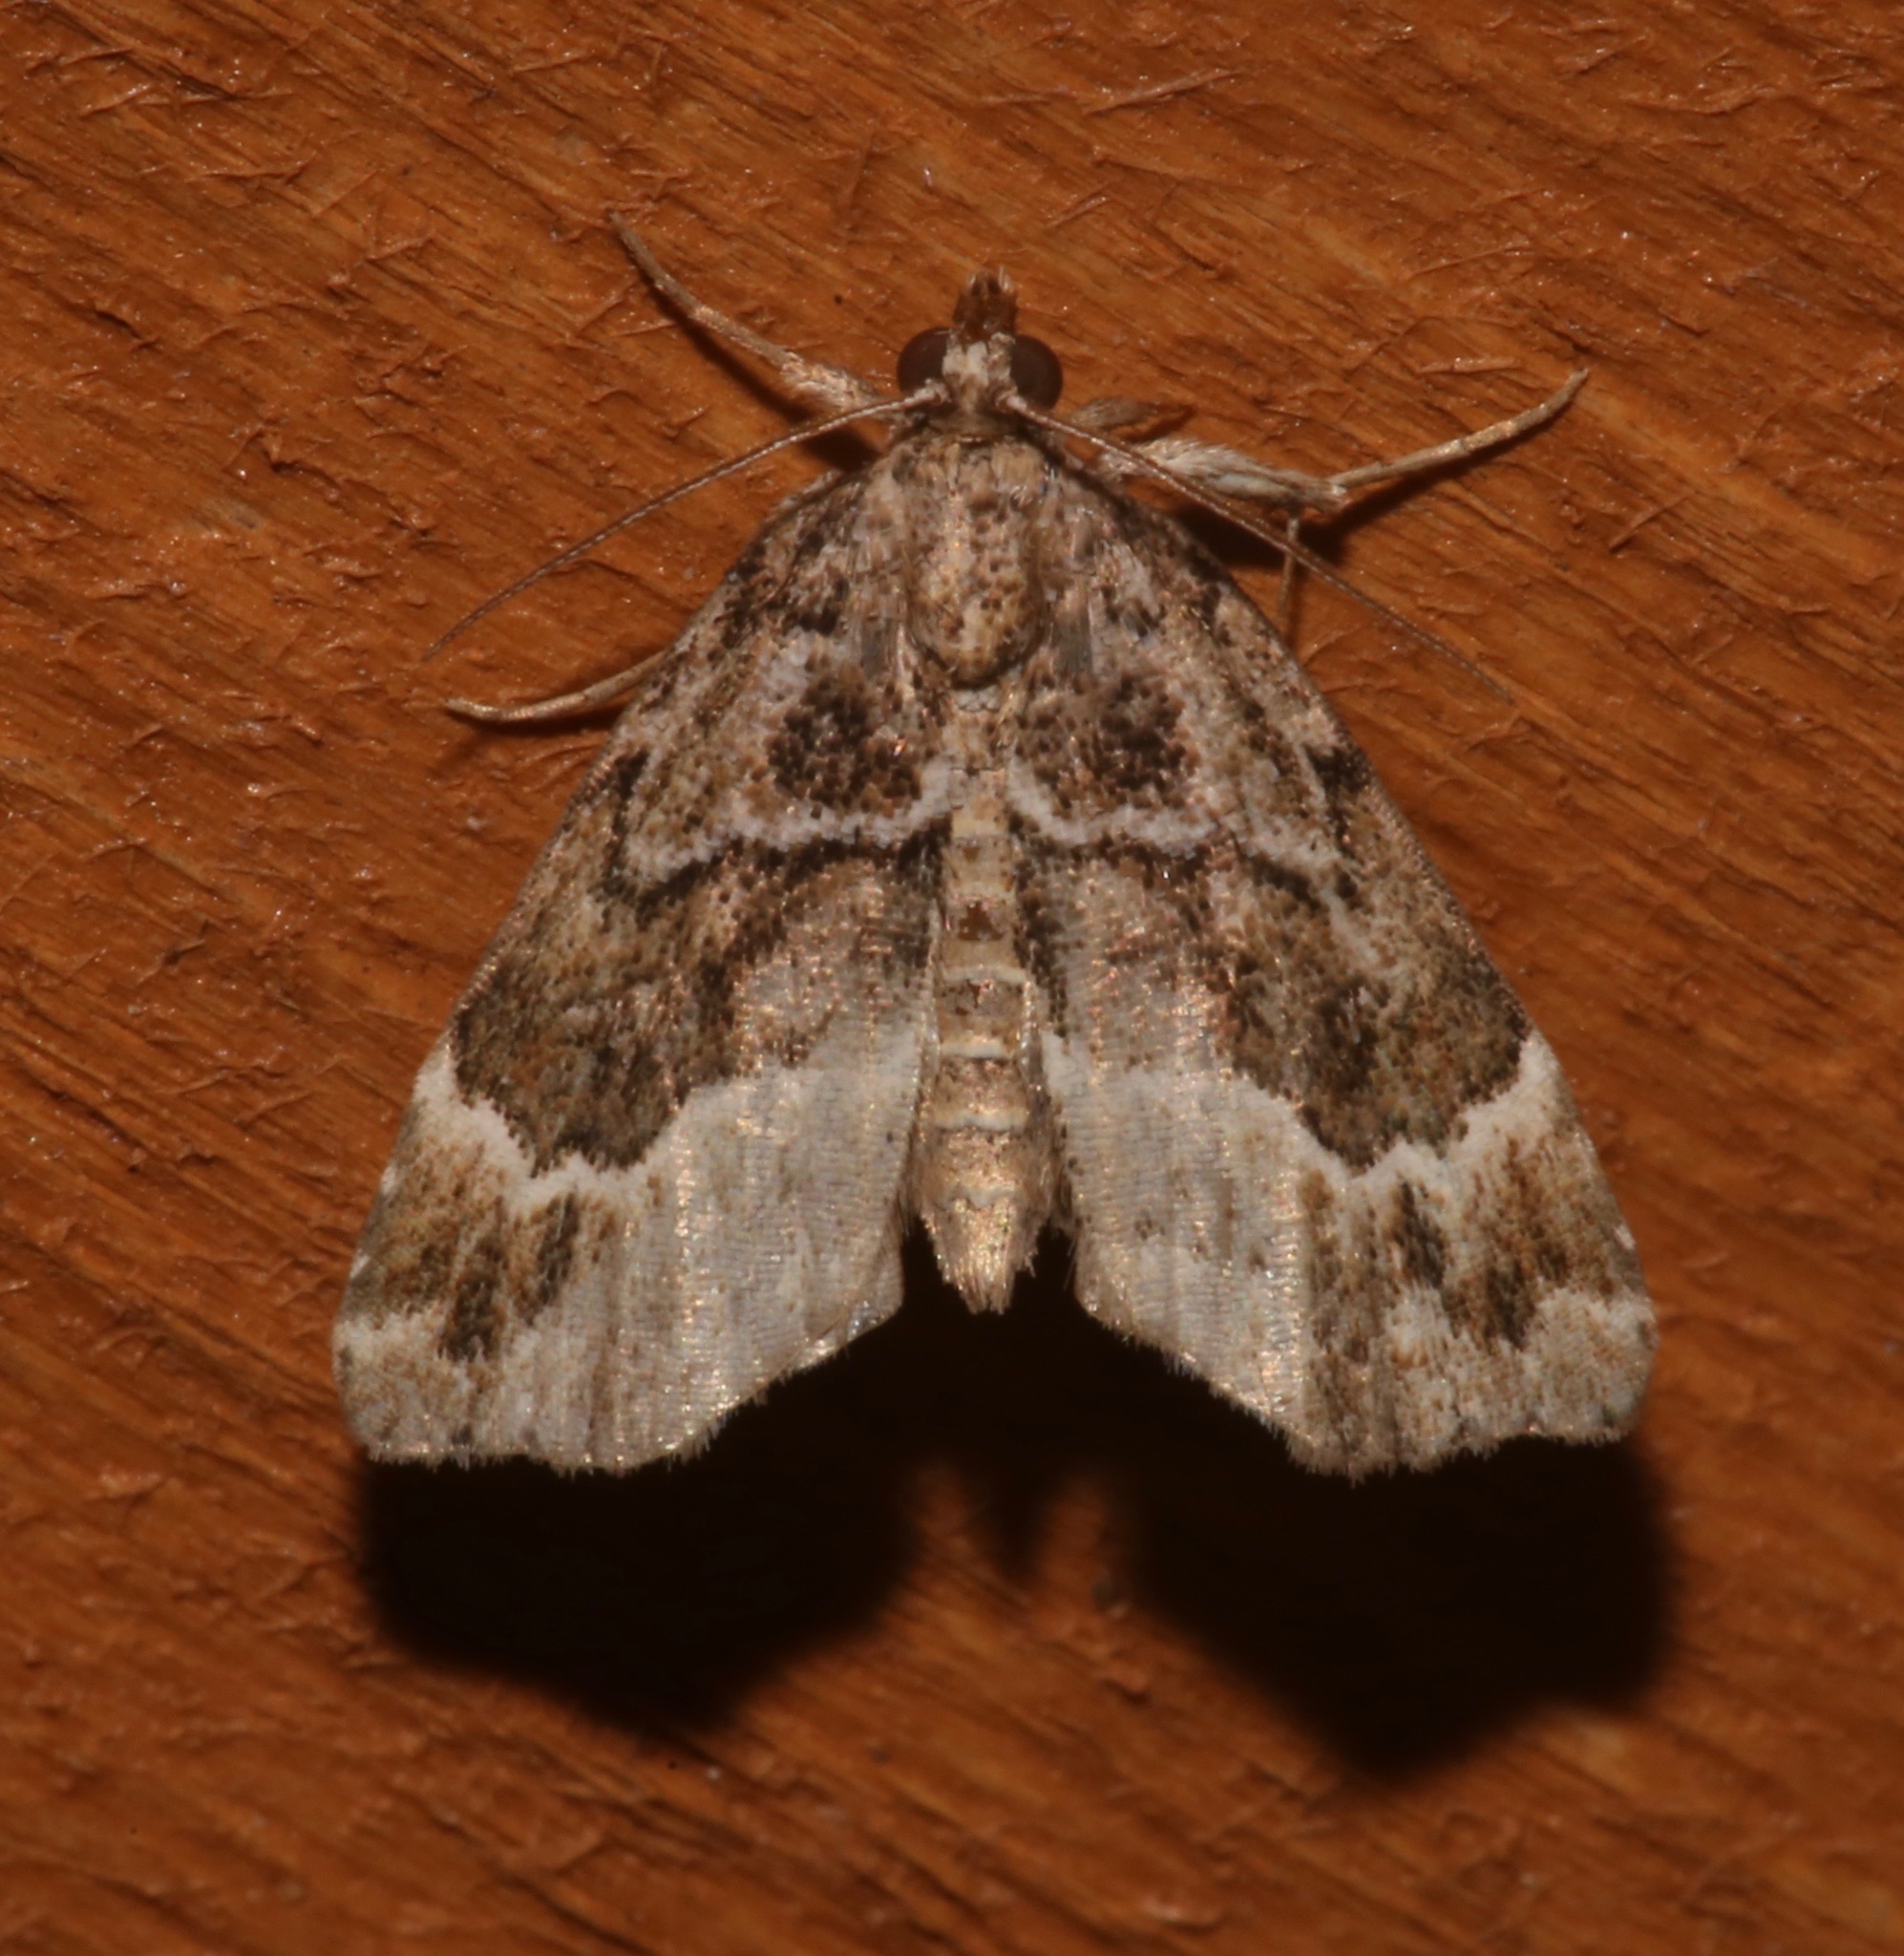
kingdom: Animalia
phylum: Arthropoda
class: Insecta
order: Lepidoptera
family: Erebidae
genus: Cutina
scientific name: Cutina arcuata
